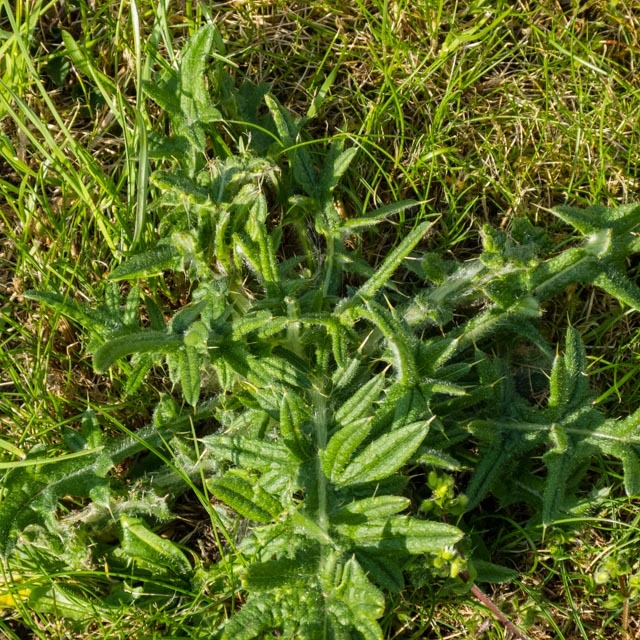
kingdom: Plantae
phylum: Tracheophyta
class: Magnoliopsida
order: Asterales
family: Asteraceae
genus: Cirsium
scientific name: Cirsium vulgare
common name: Bull thistle
